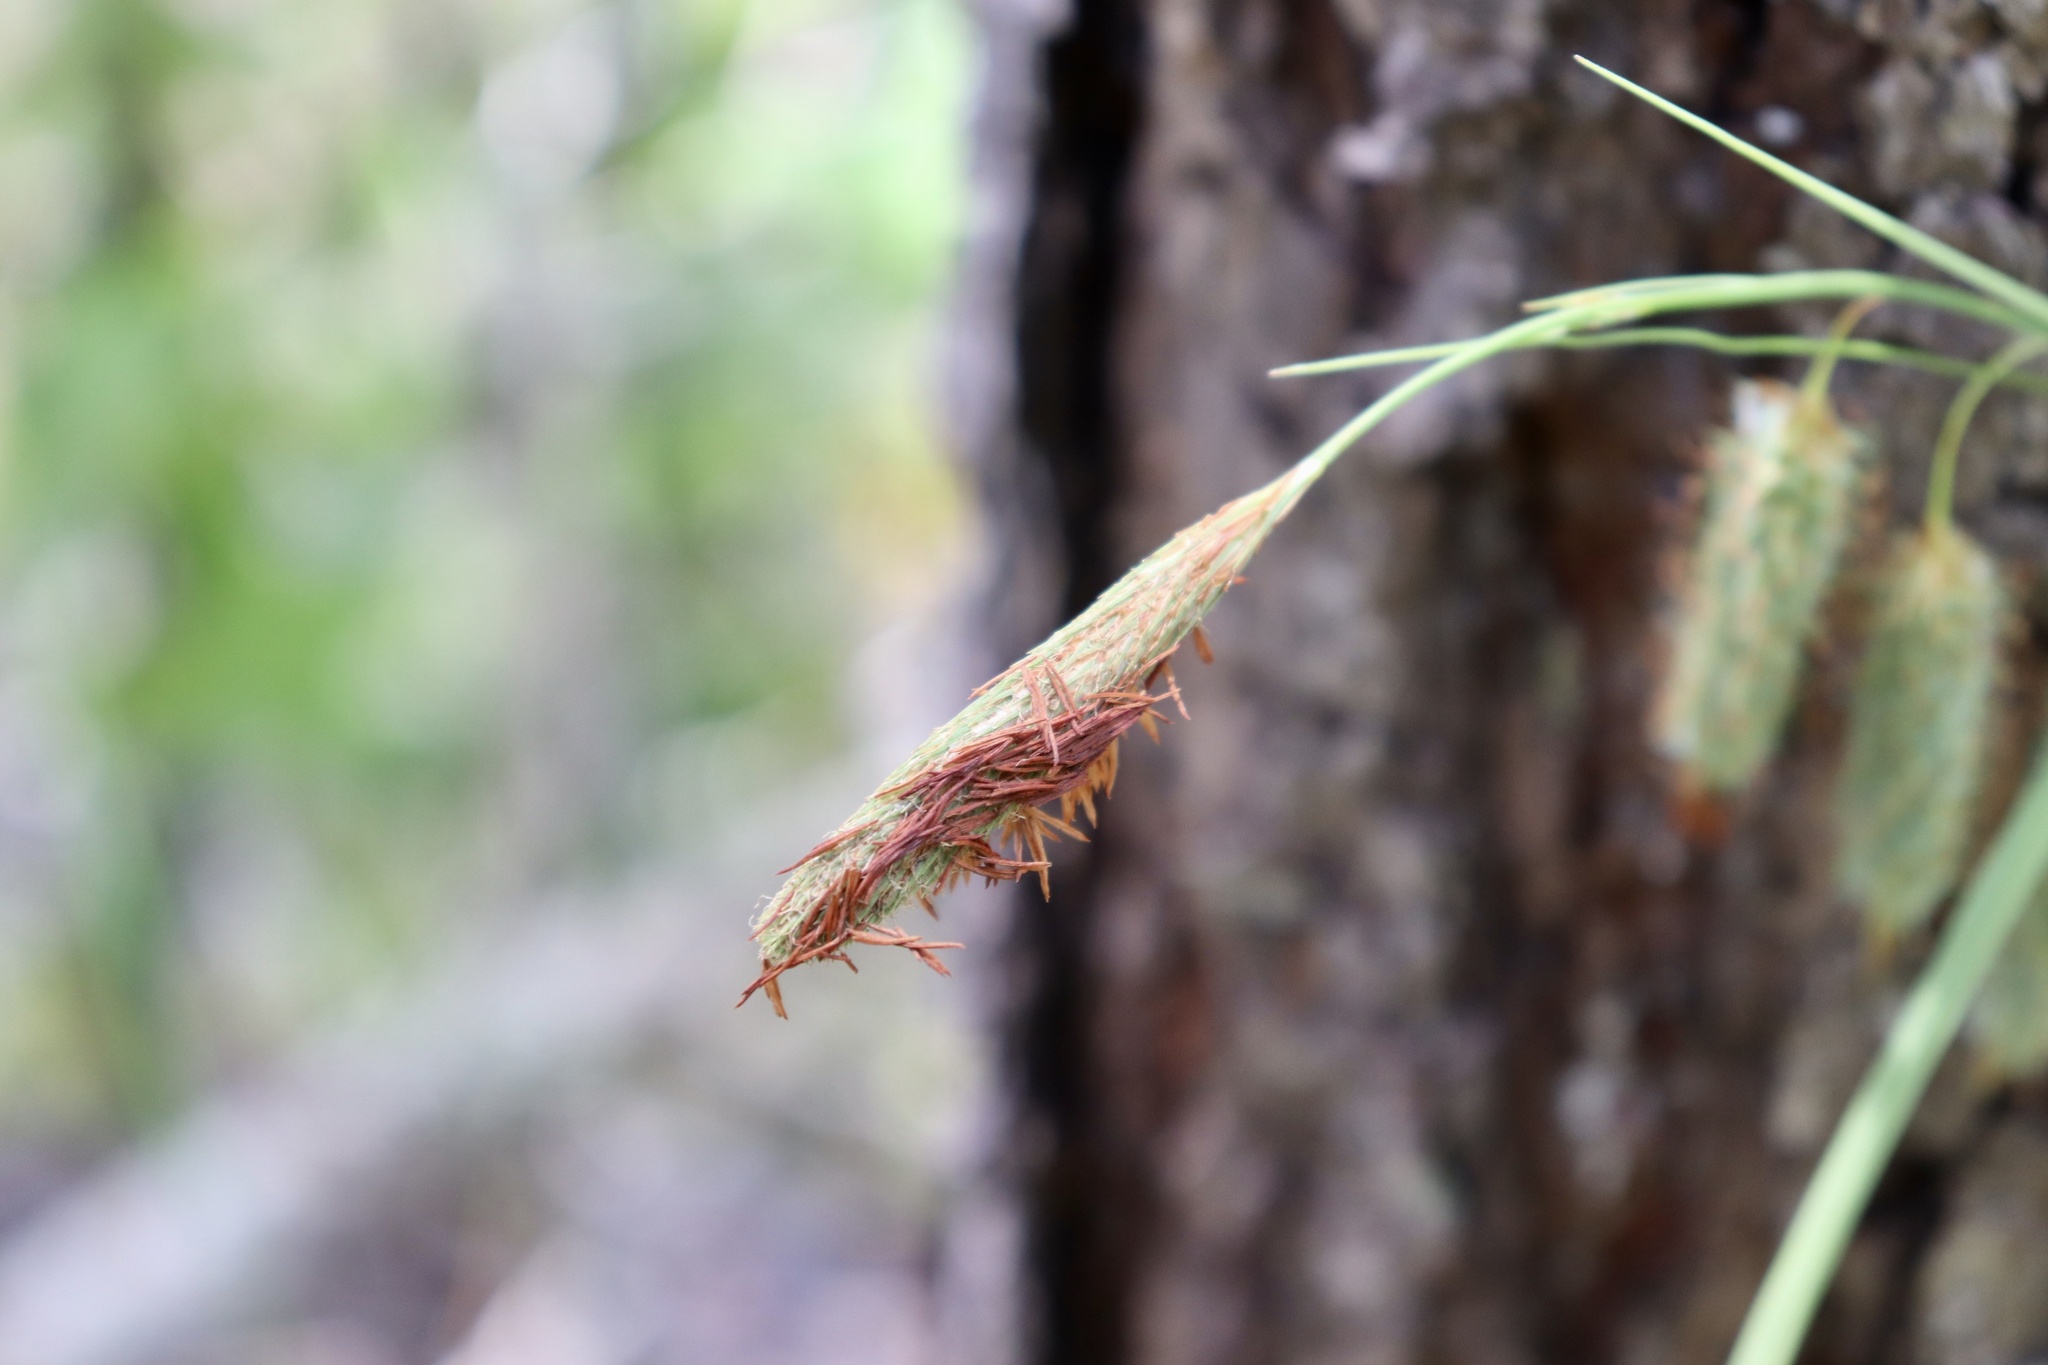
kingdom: Plantae
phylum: Tracheophyta
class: Liliopsida
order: Poales
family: Cyperaceae
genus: Carex
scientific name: Carex glaucescens
